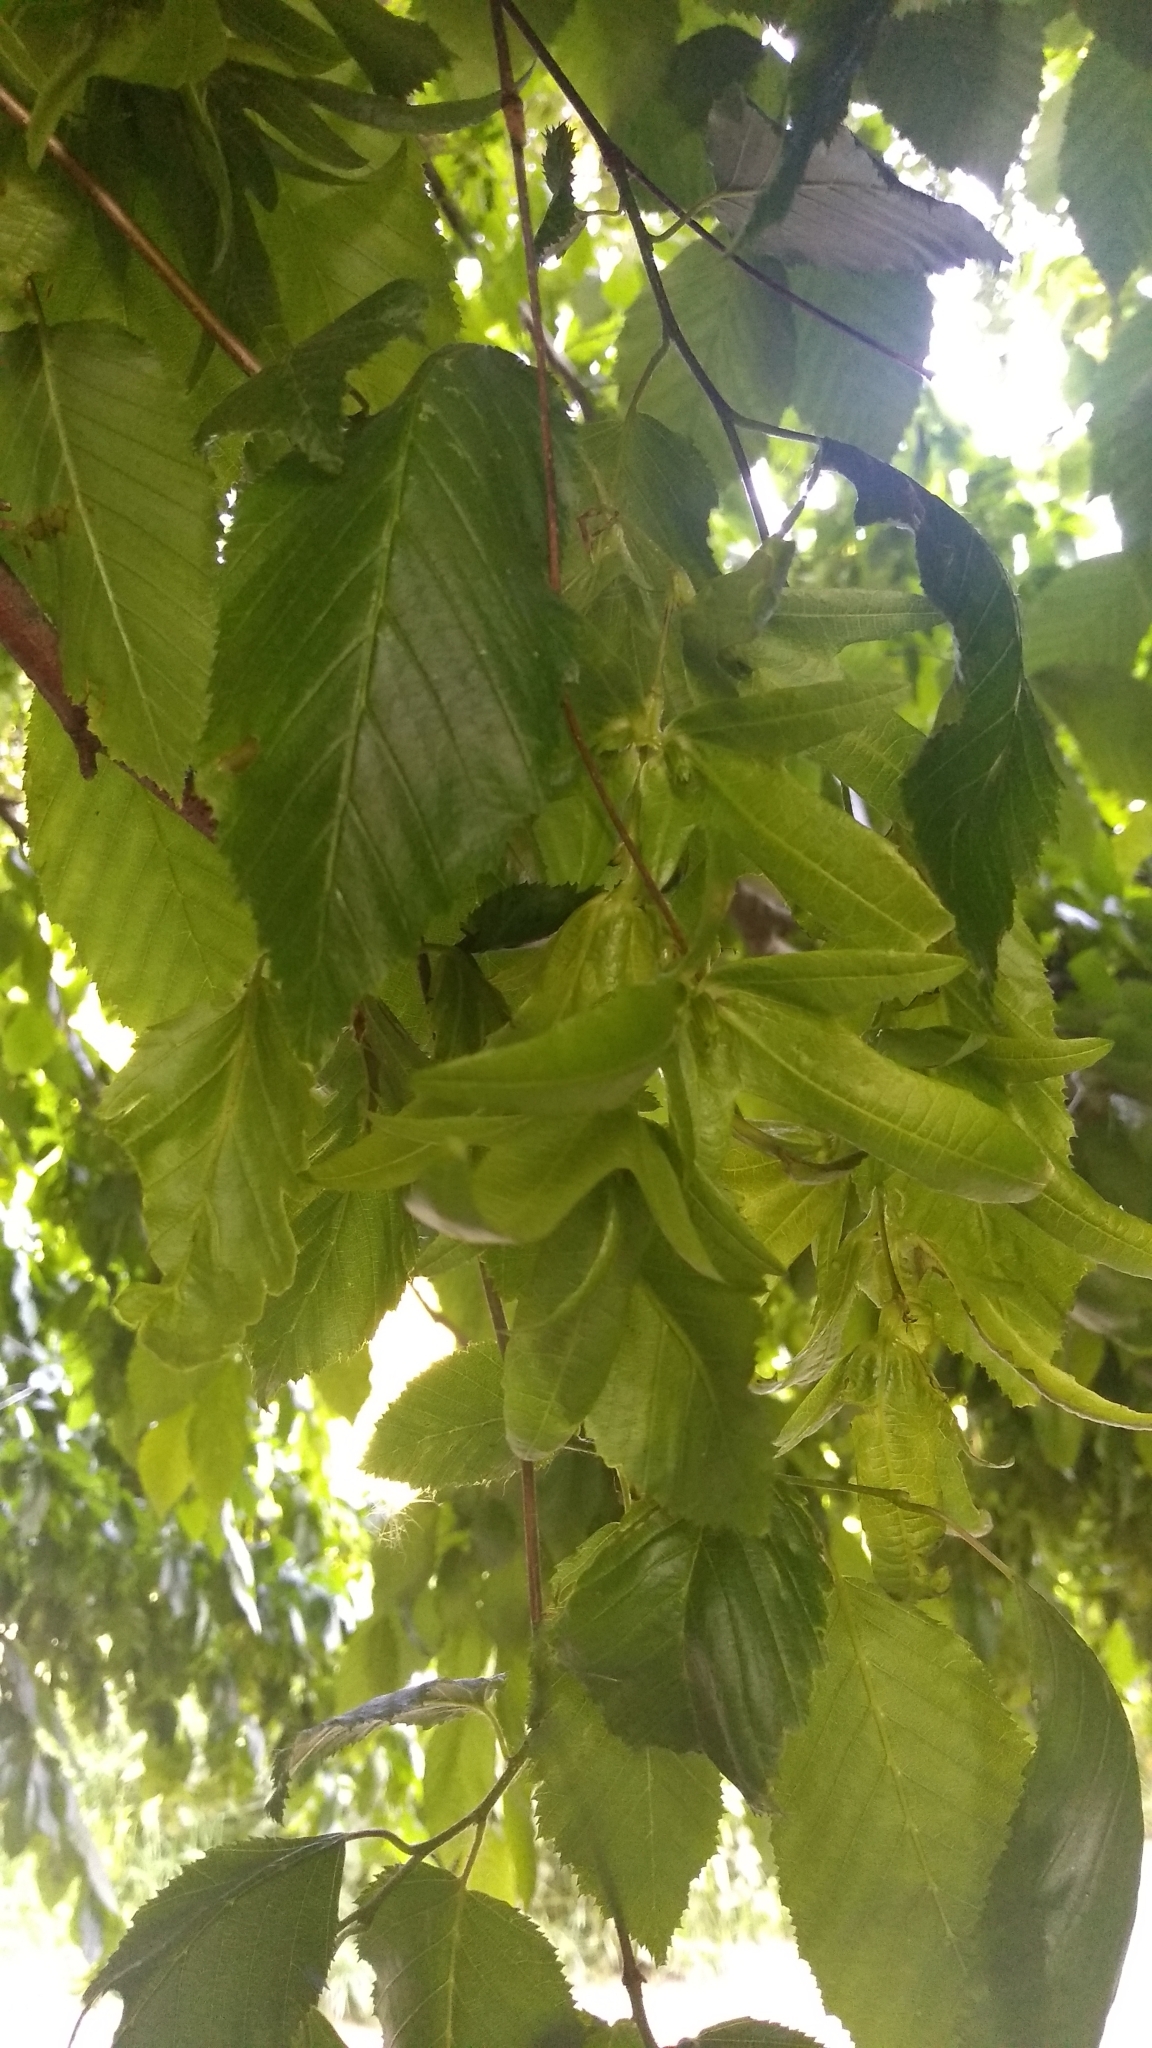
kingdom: Plantae
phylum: Tracheophyta
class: Magnoliopsida
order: Fagales
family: Betulaceae
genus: Carpinus
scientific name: Carpinus betulus
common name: Hornbeam
